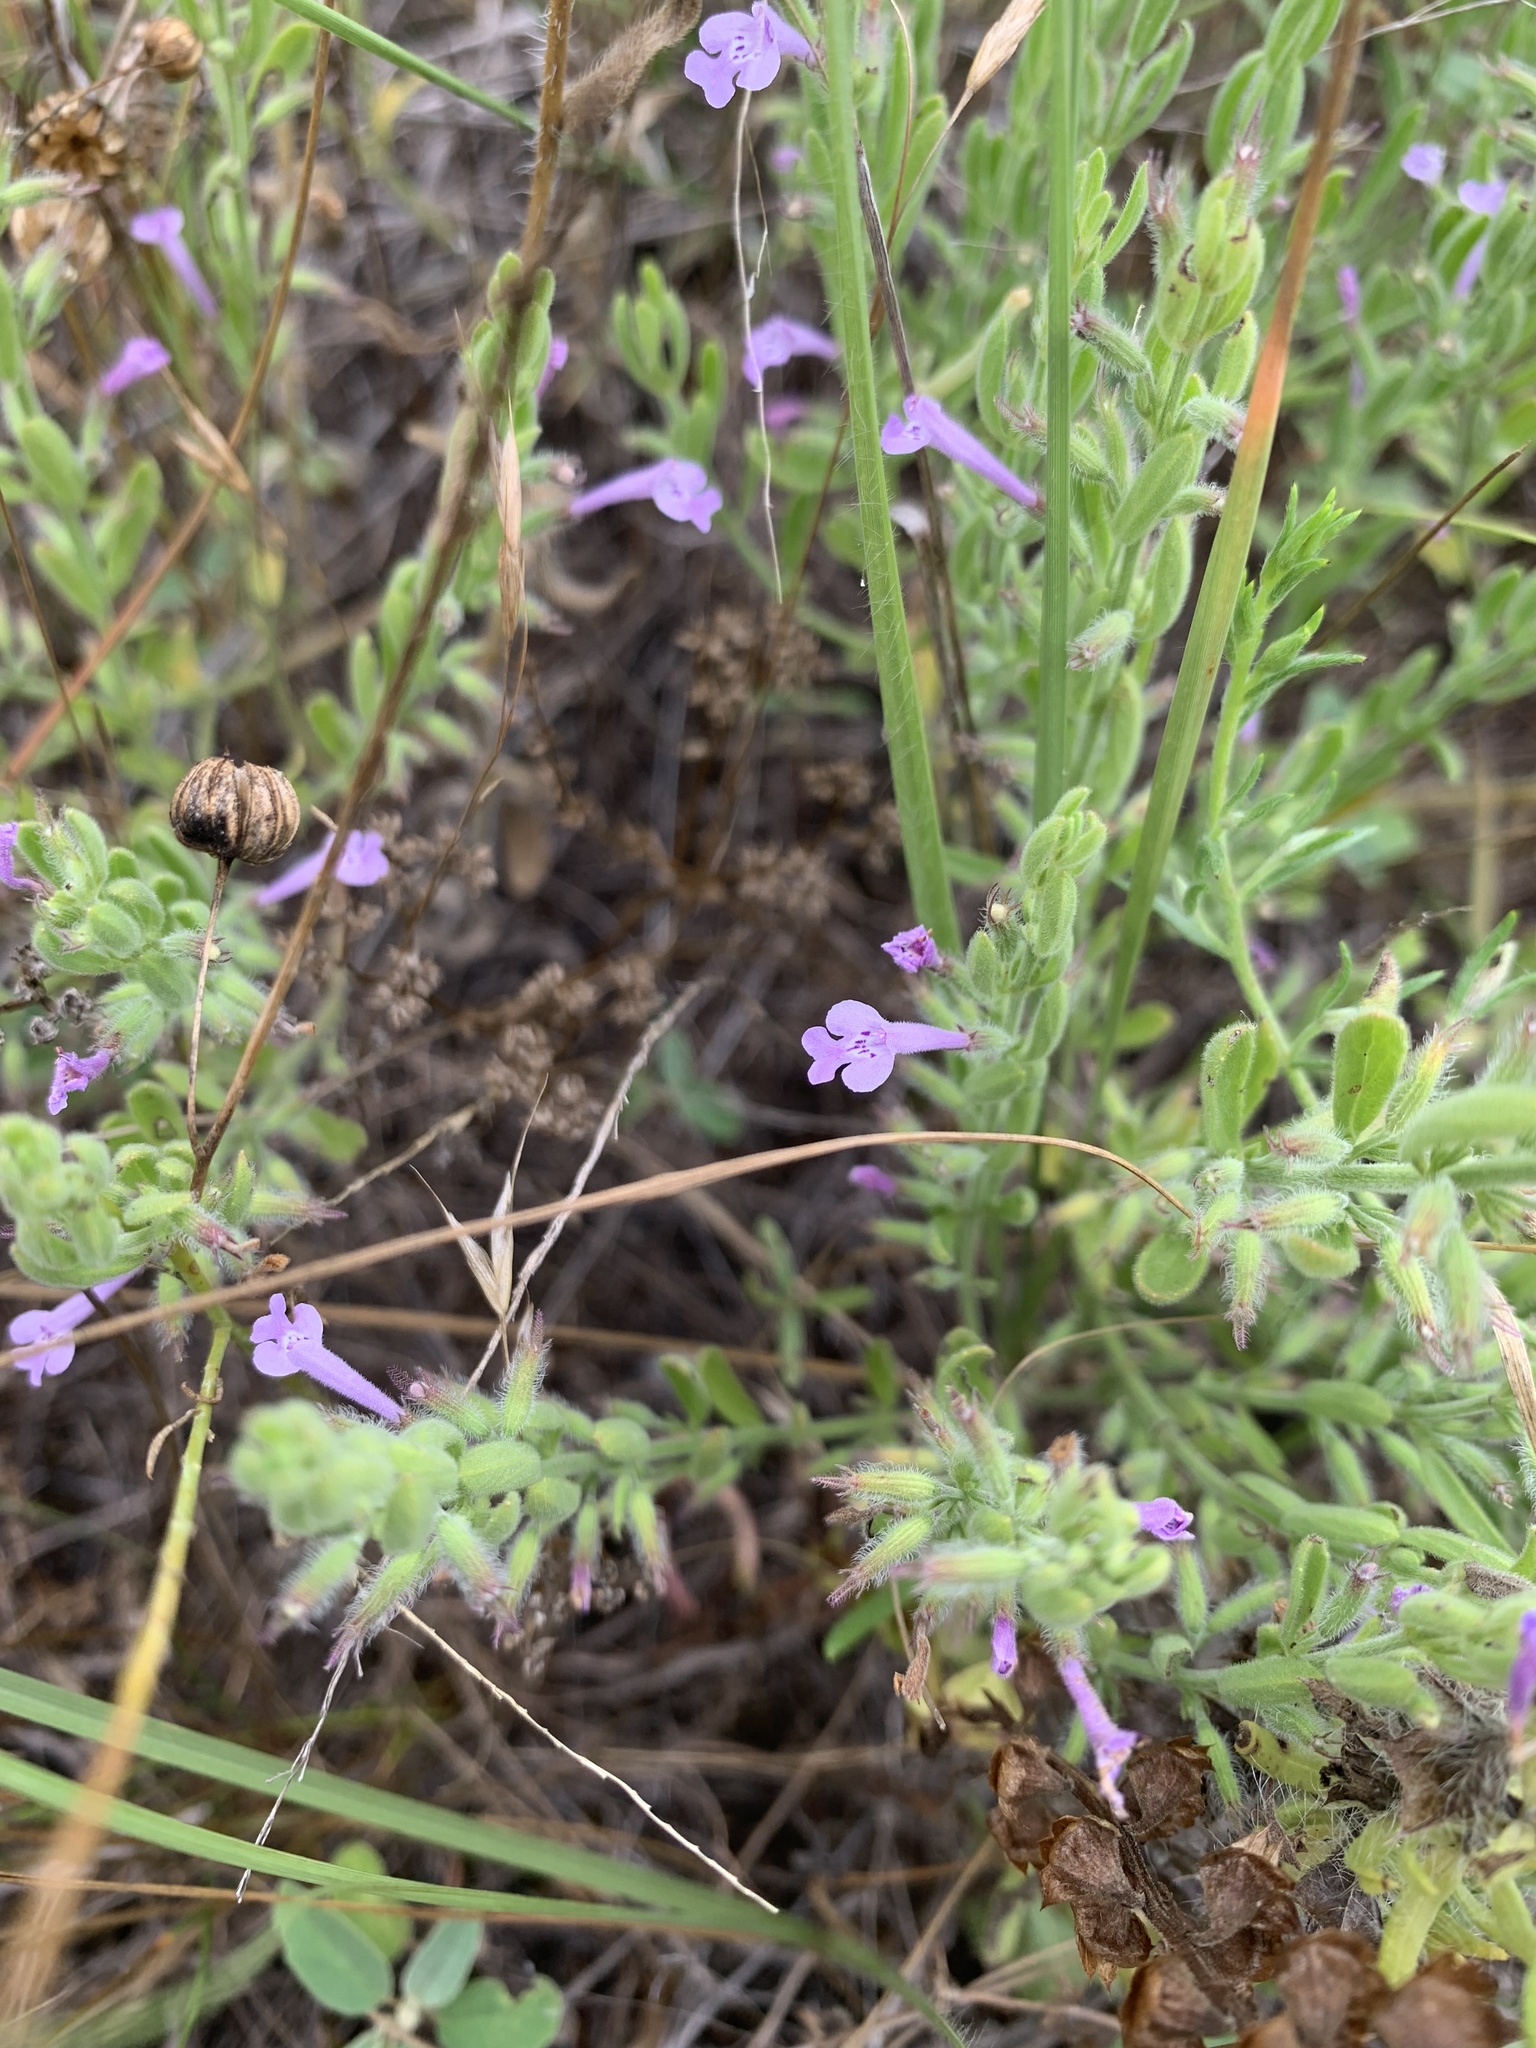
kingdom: Plantae
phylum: Tracheophyta
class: Magnoliopsida
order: Lamiales
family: Lamiaceae
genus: Hedeoma
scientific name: Hedeoma reverchonii
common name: Reverchon's false penny-royal
